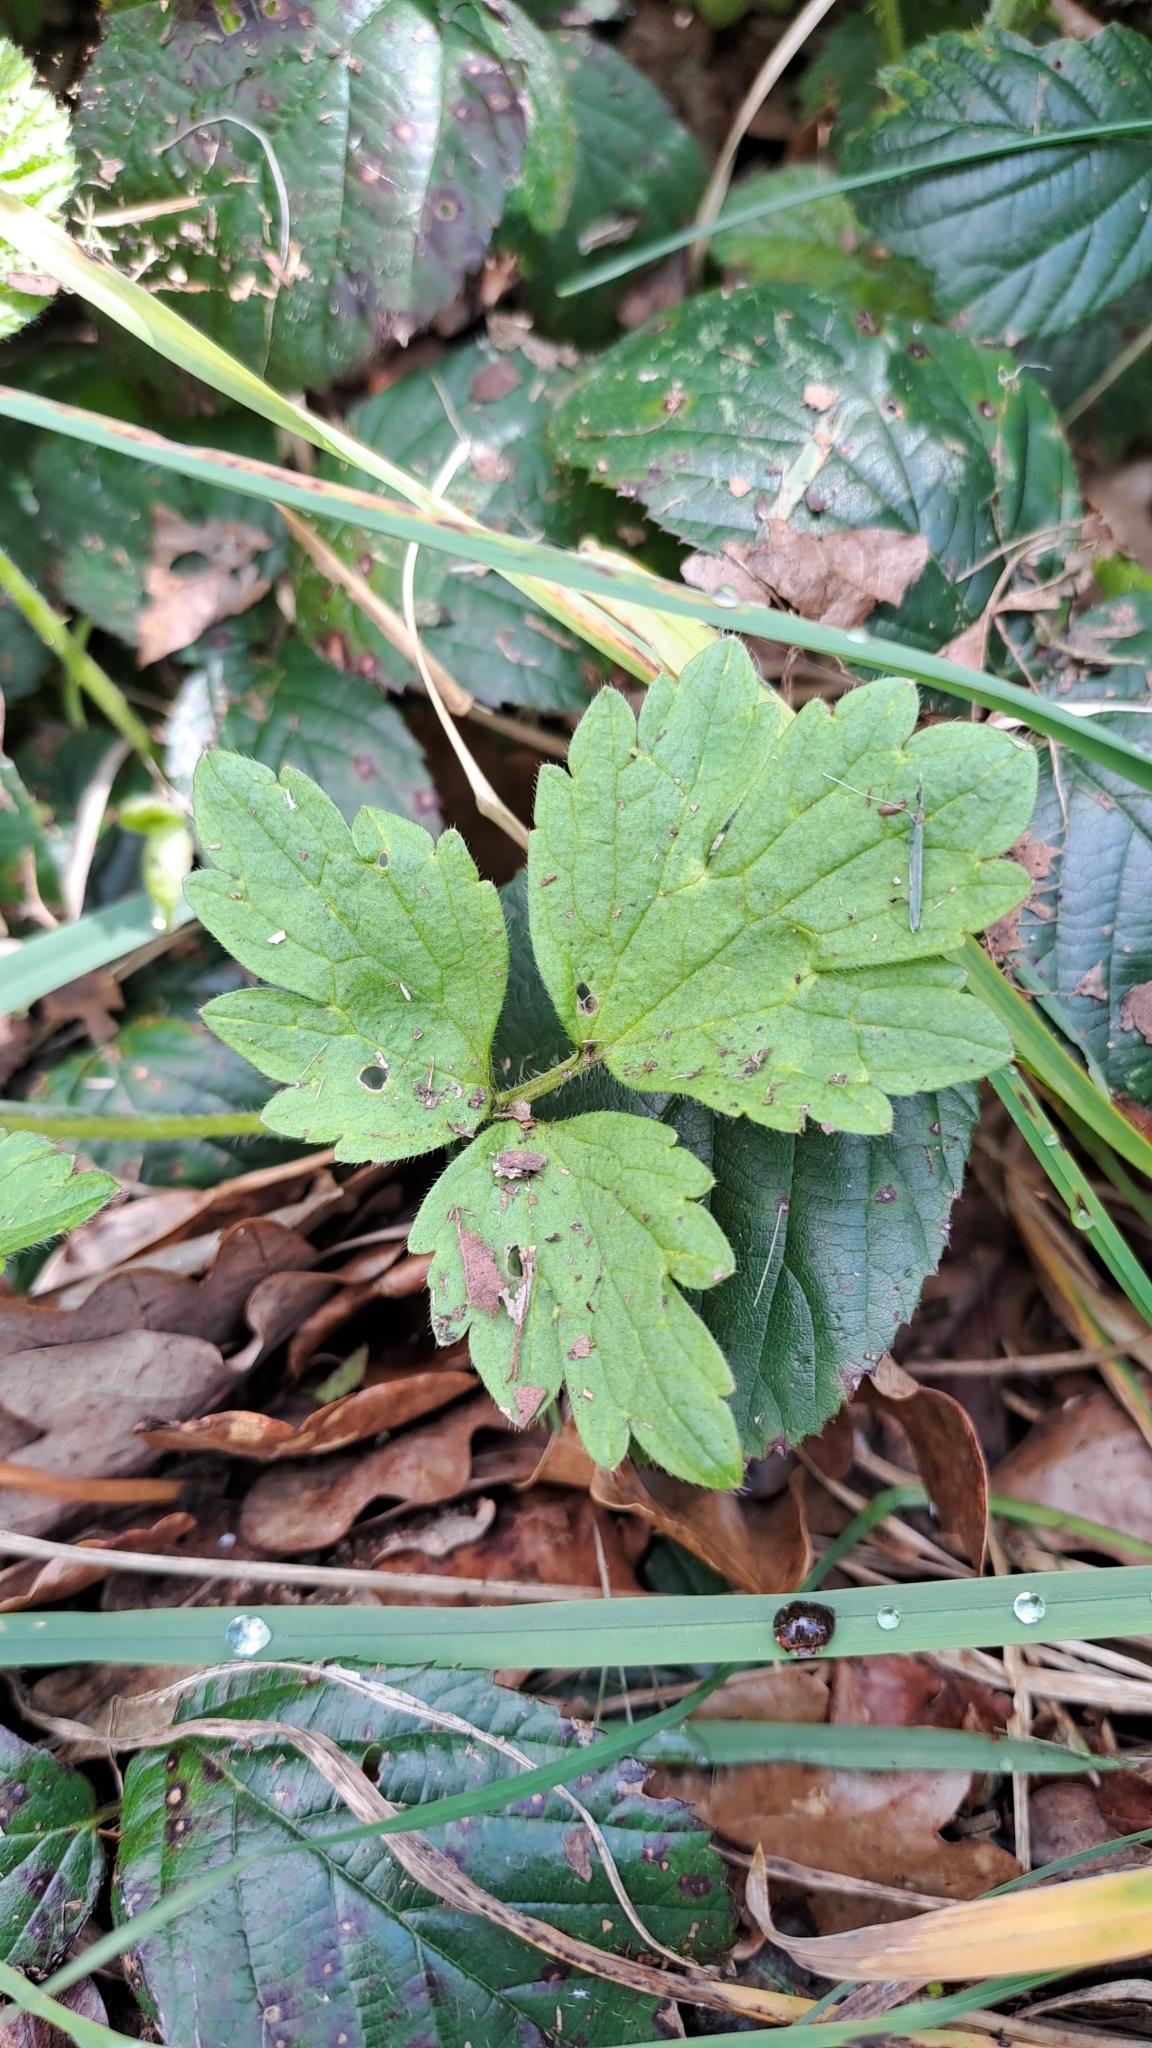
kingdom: Plantae
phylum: Tracheophyta
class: Magnoliopsida
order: Ranunculales
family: Ranunculaceae
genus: Ranunculus
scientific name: Ranunculus repens
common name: Creeping buttercup
